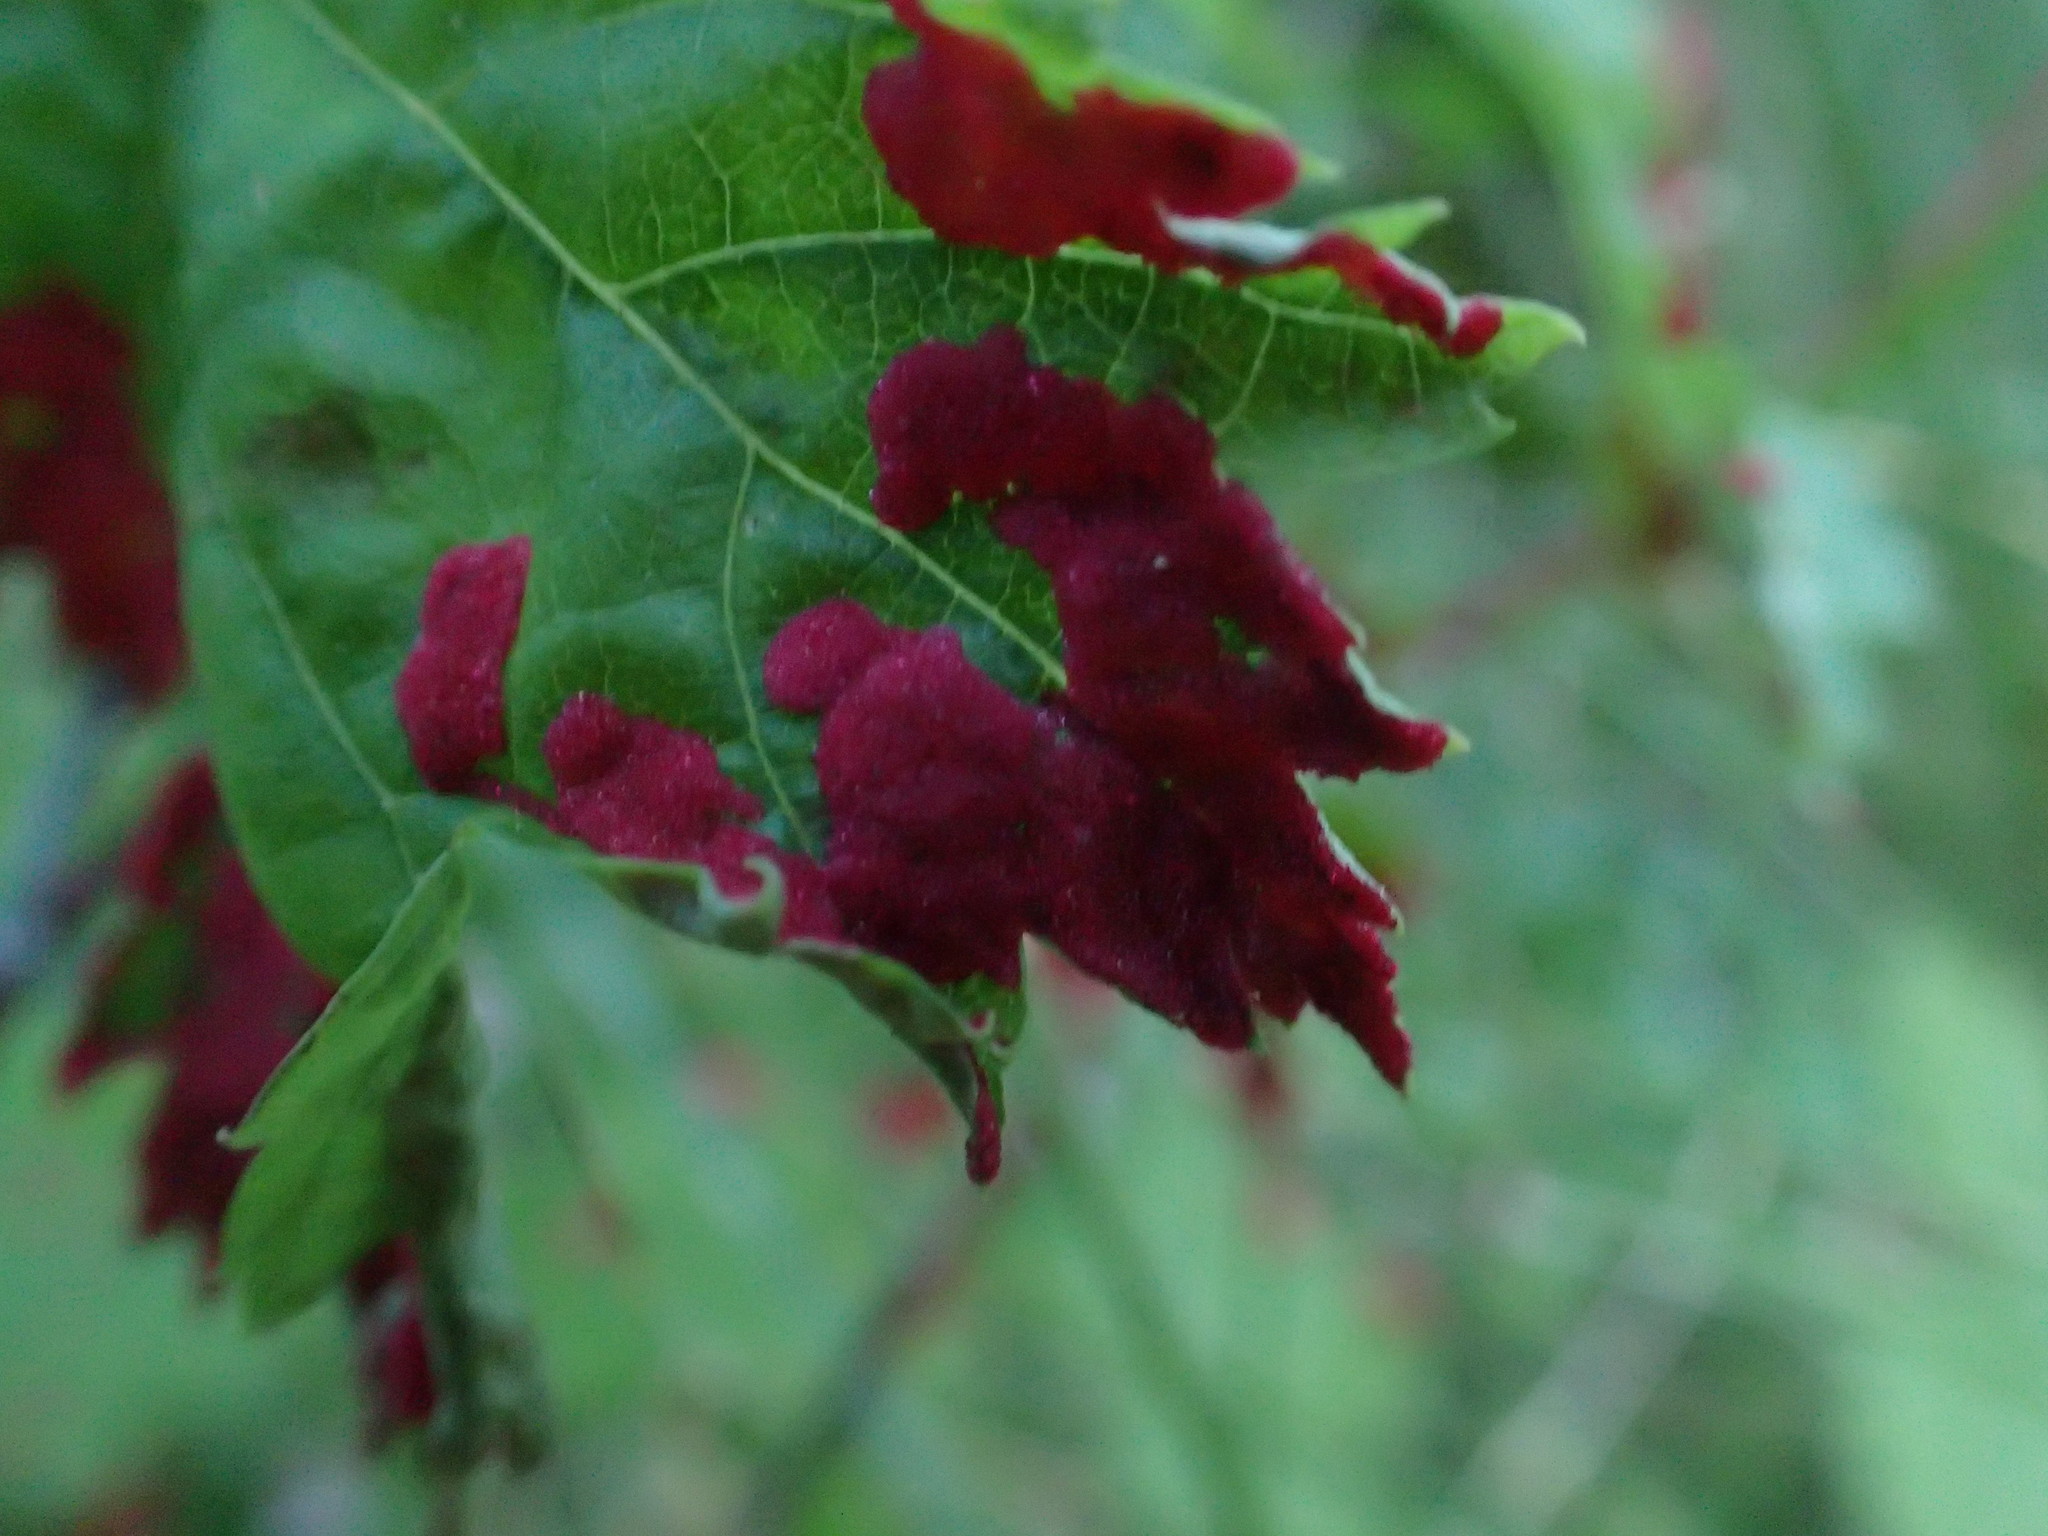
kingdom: Animalia
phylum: Arthropoda
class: Arachnida
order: Trombidiformes
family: Eriophyidae
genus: Aceria
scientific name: Aceria
